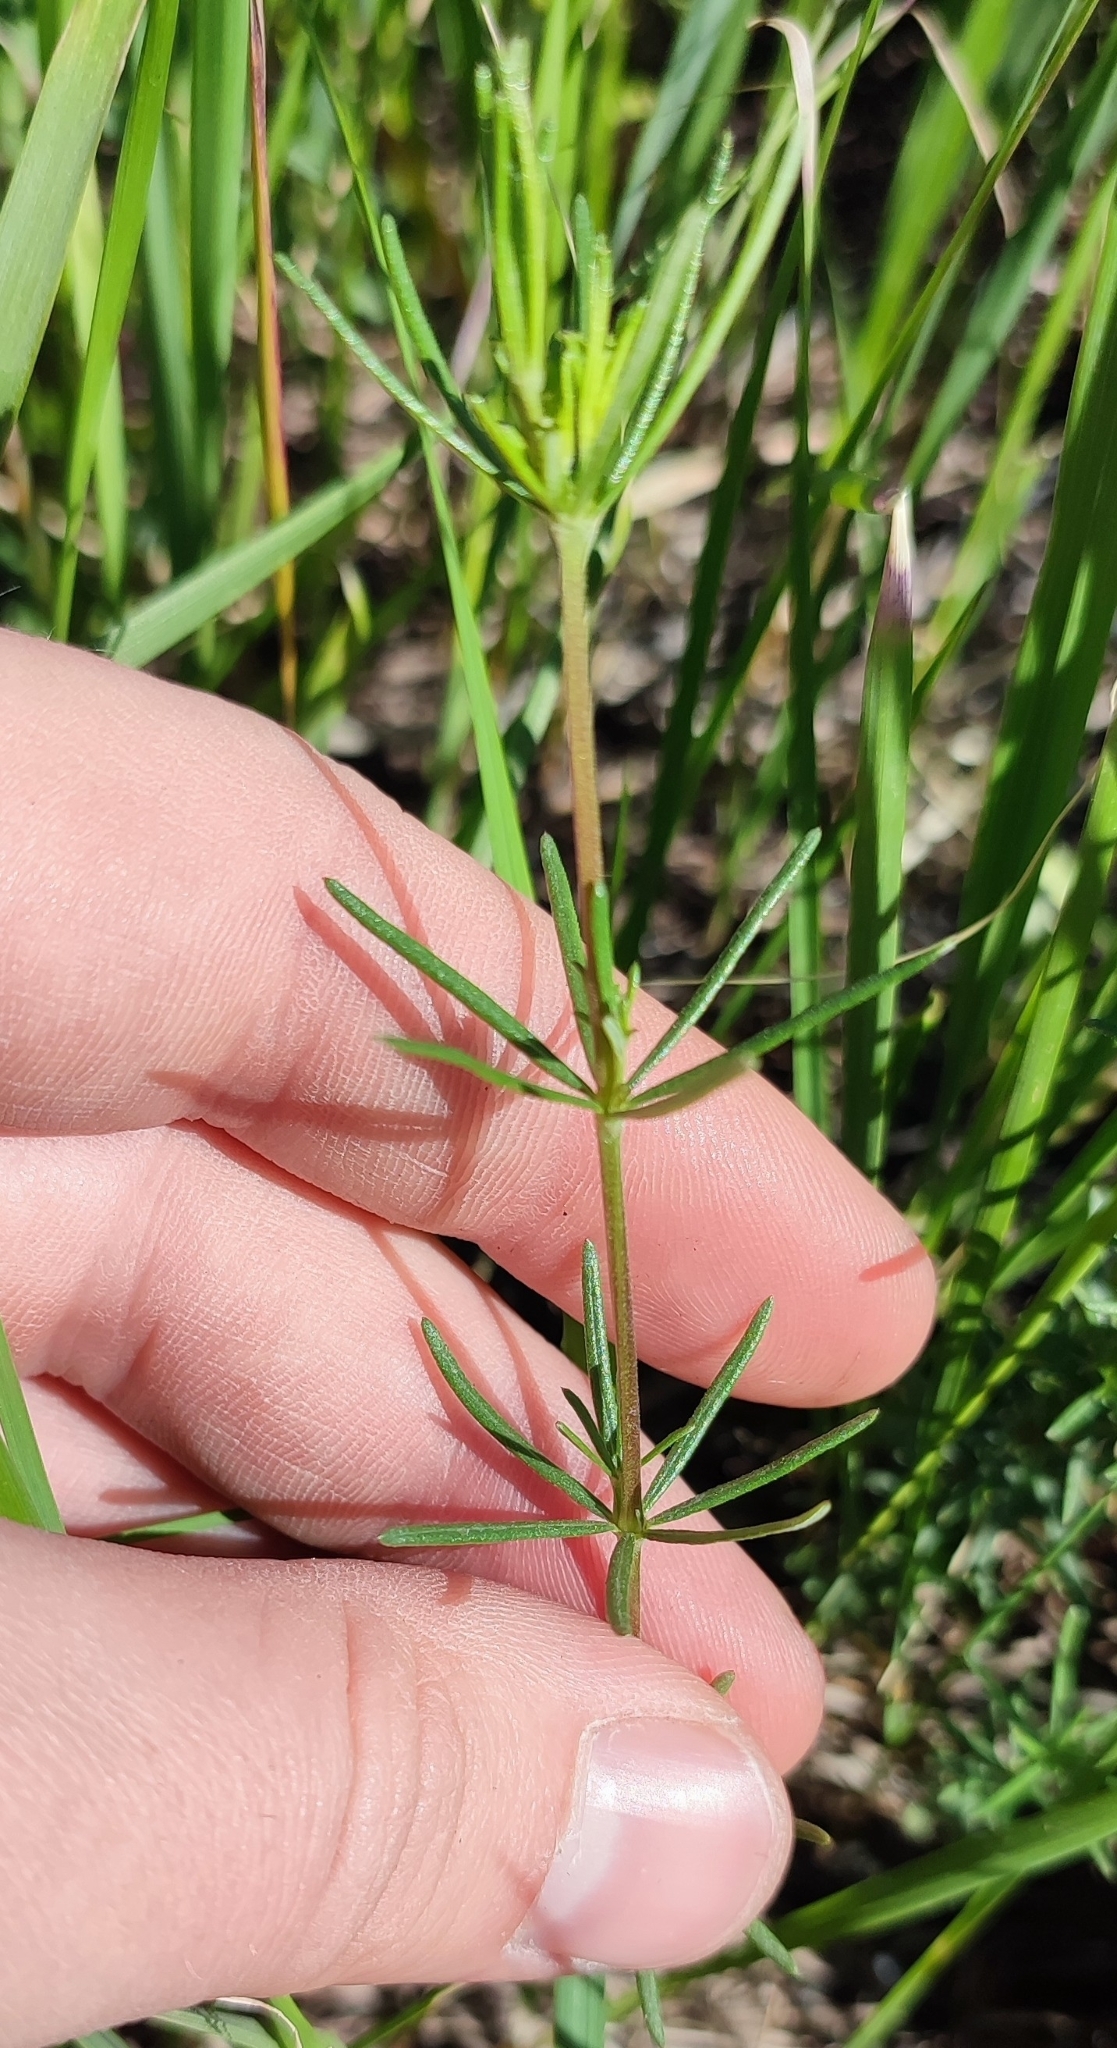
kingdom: Plantae
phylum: Tracheophyta
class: Magnoliopsida
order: Gentianales
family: Rubiaceae
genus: Galium
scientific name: Galium verum
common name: Lady's bedstraw
